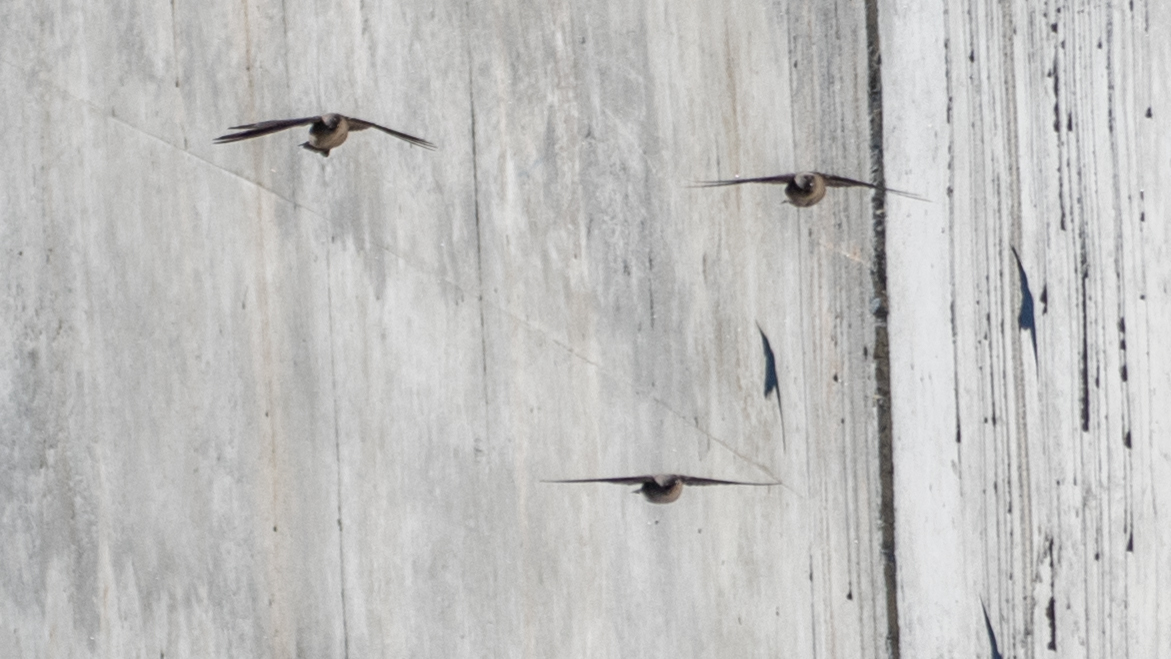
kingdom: Animalia
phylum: Chordata
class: Aves
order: Passeriformes
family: Hirundinidae
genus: Ptyonoprogne
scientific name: Ptyonoprogne rupestris
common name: Eurasian crag martin
